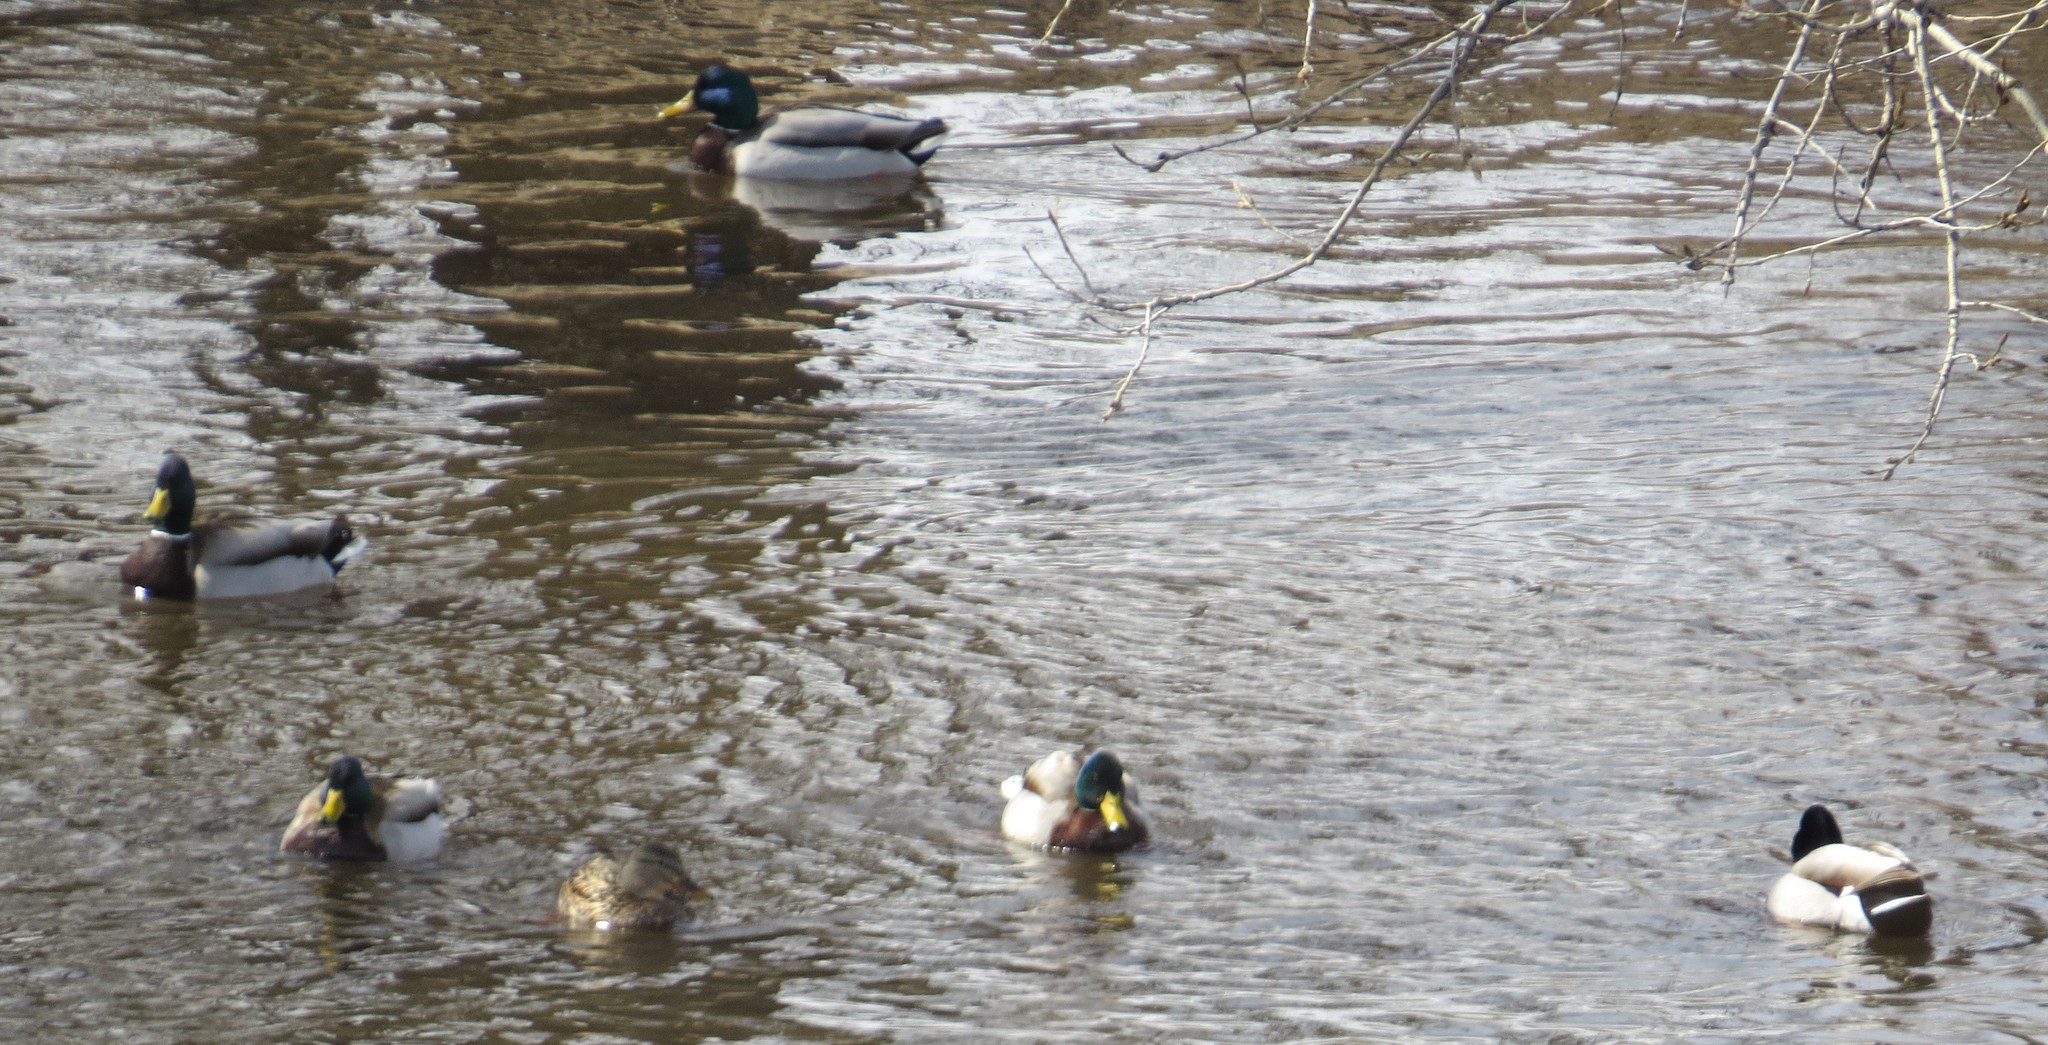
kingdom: Animalia
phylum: Chordata
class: Aves
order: Anseriformes
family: Anatidae
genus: Anas
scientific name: Anas platyrhynchos
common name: Mallard
